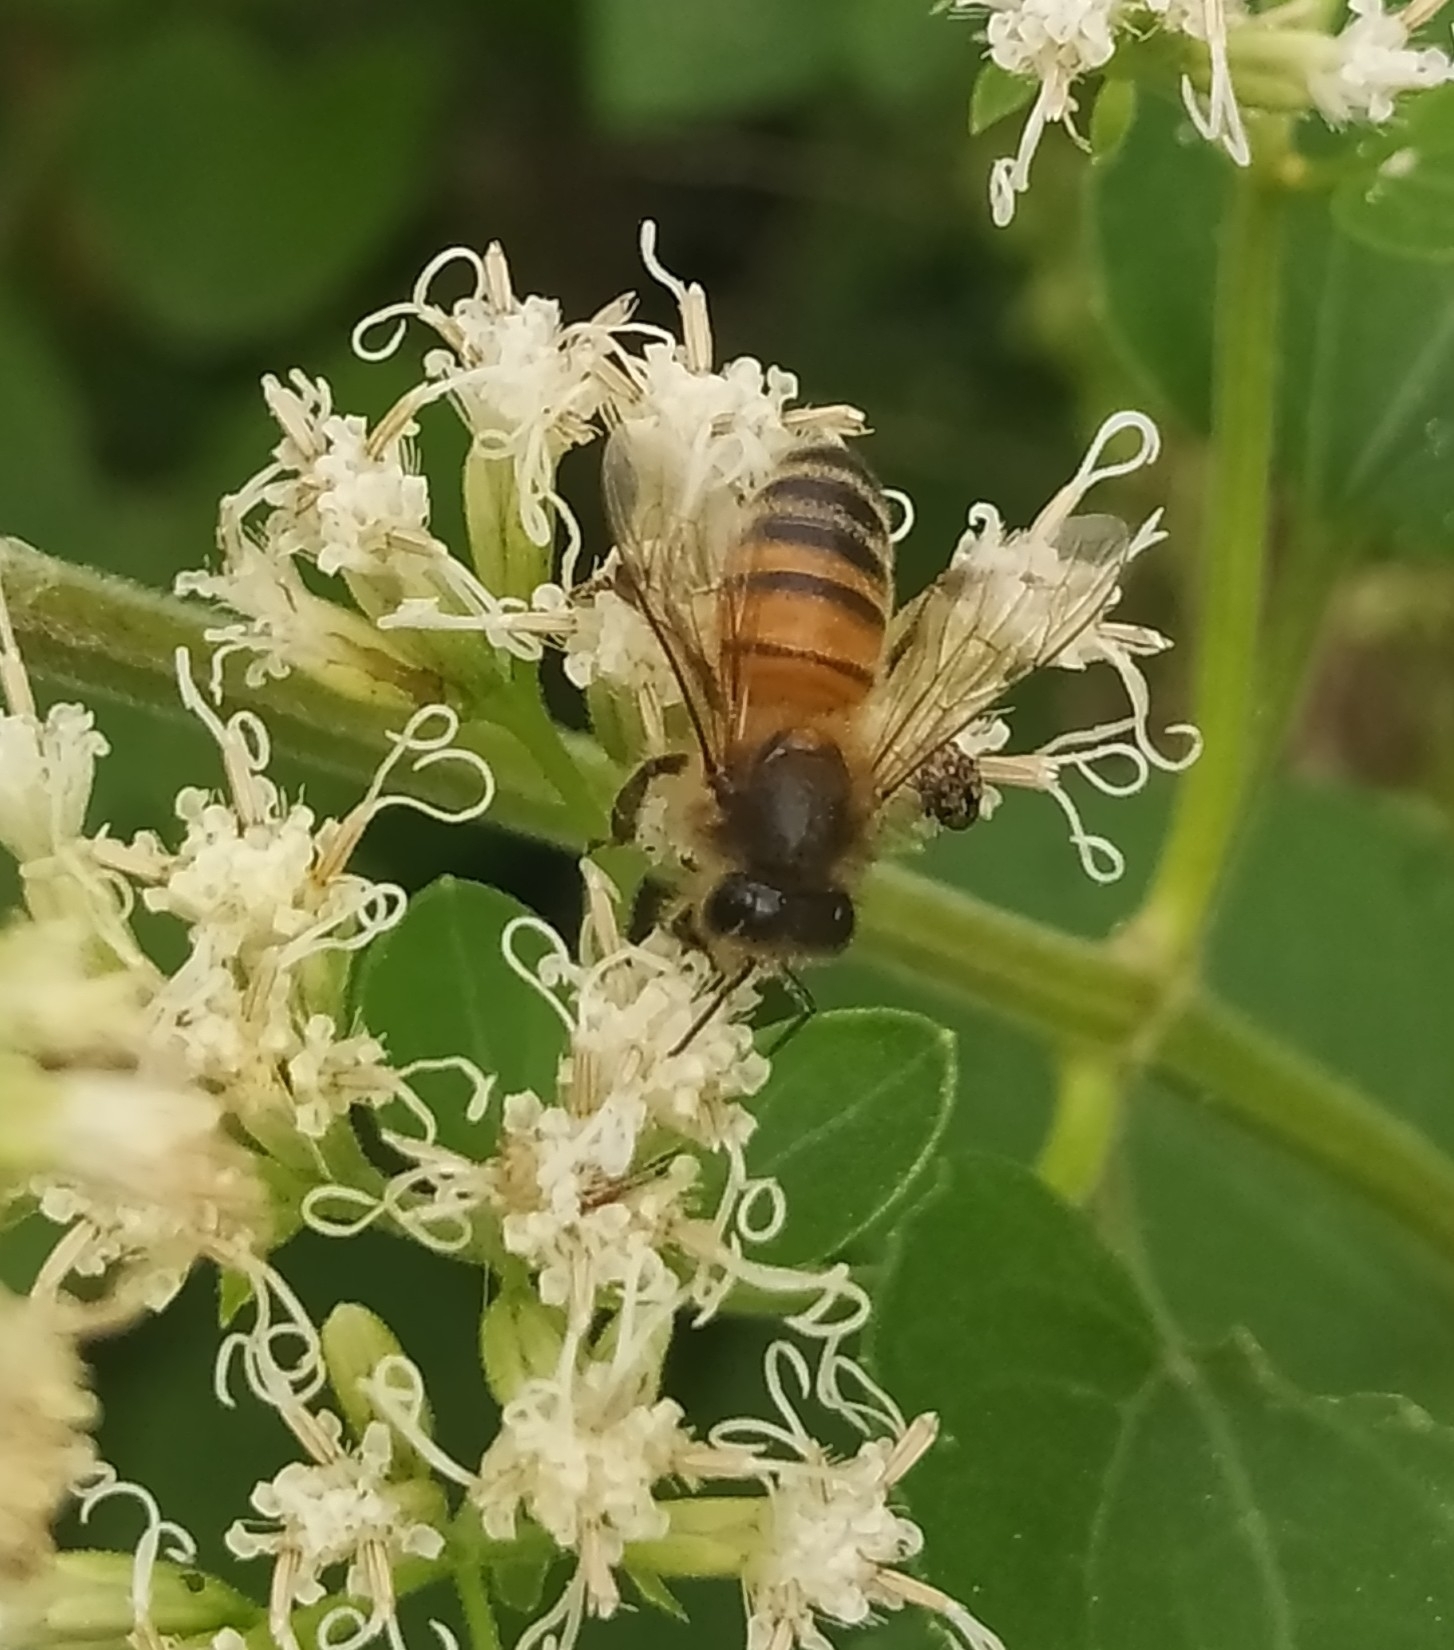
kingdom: Animalia
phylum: Arthropoda
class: Insecta
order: Hymenoptera
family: Apidae
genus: Apis
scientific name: Apis mellifera
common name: Honey bee
